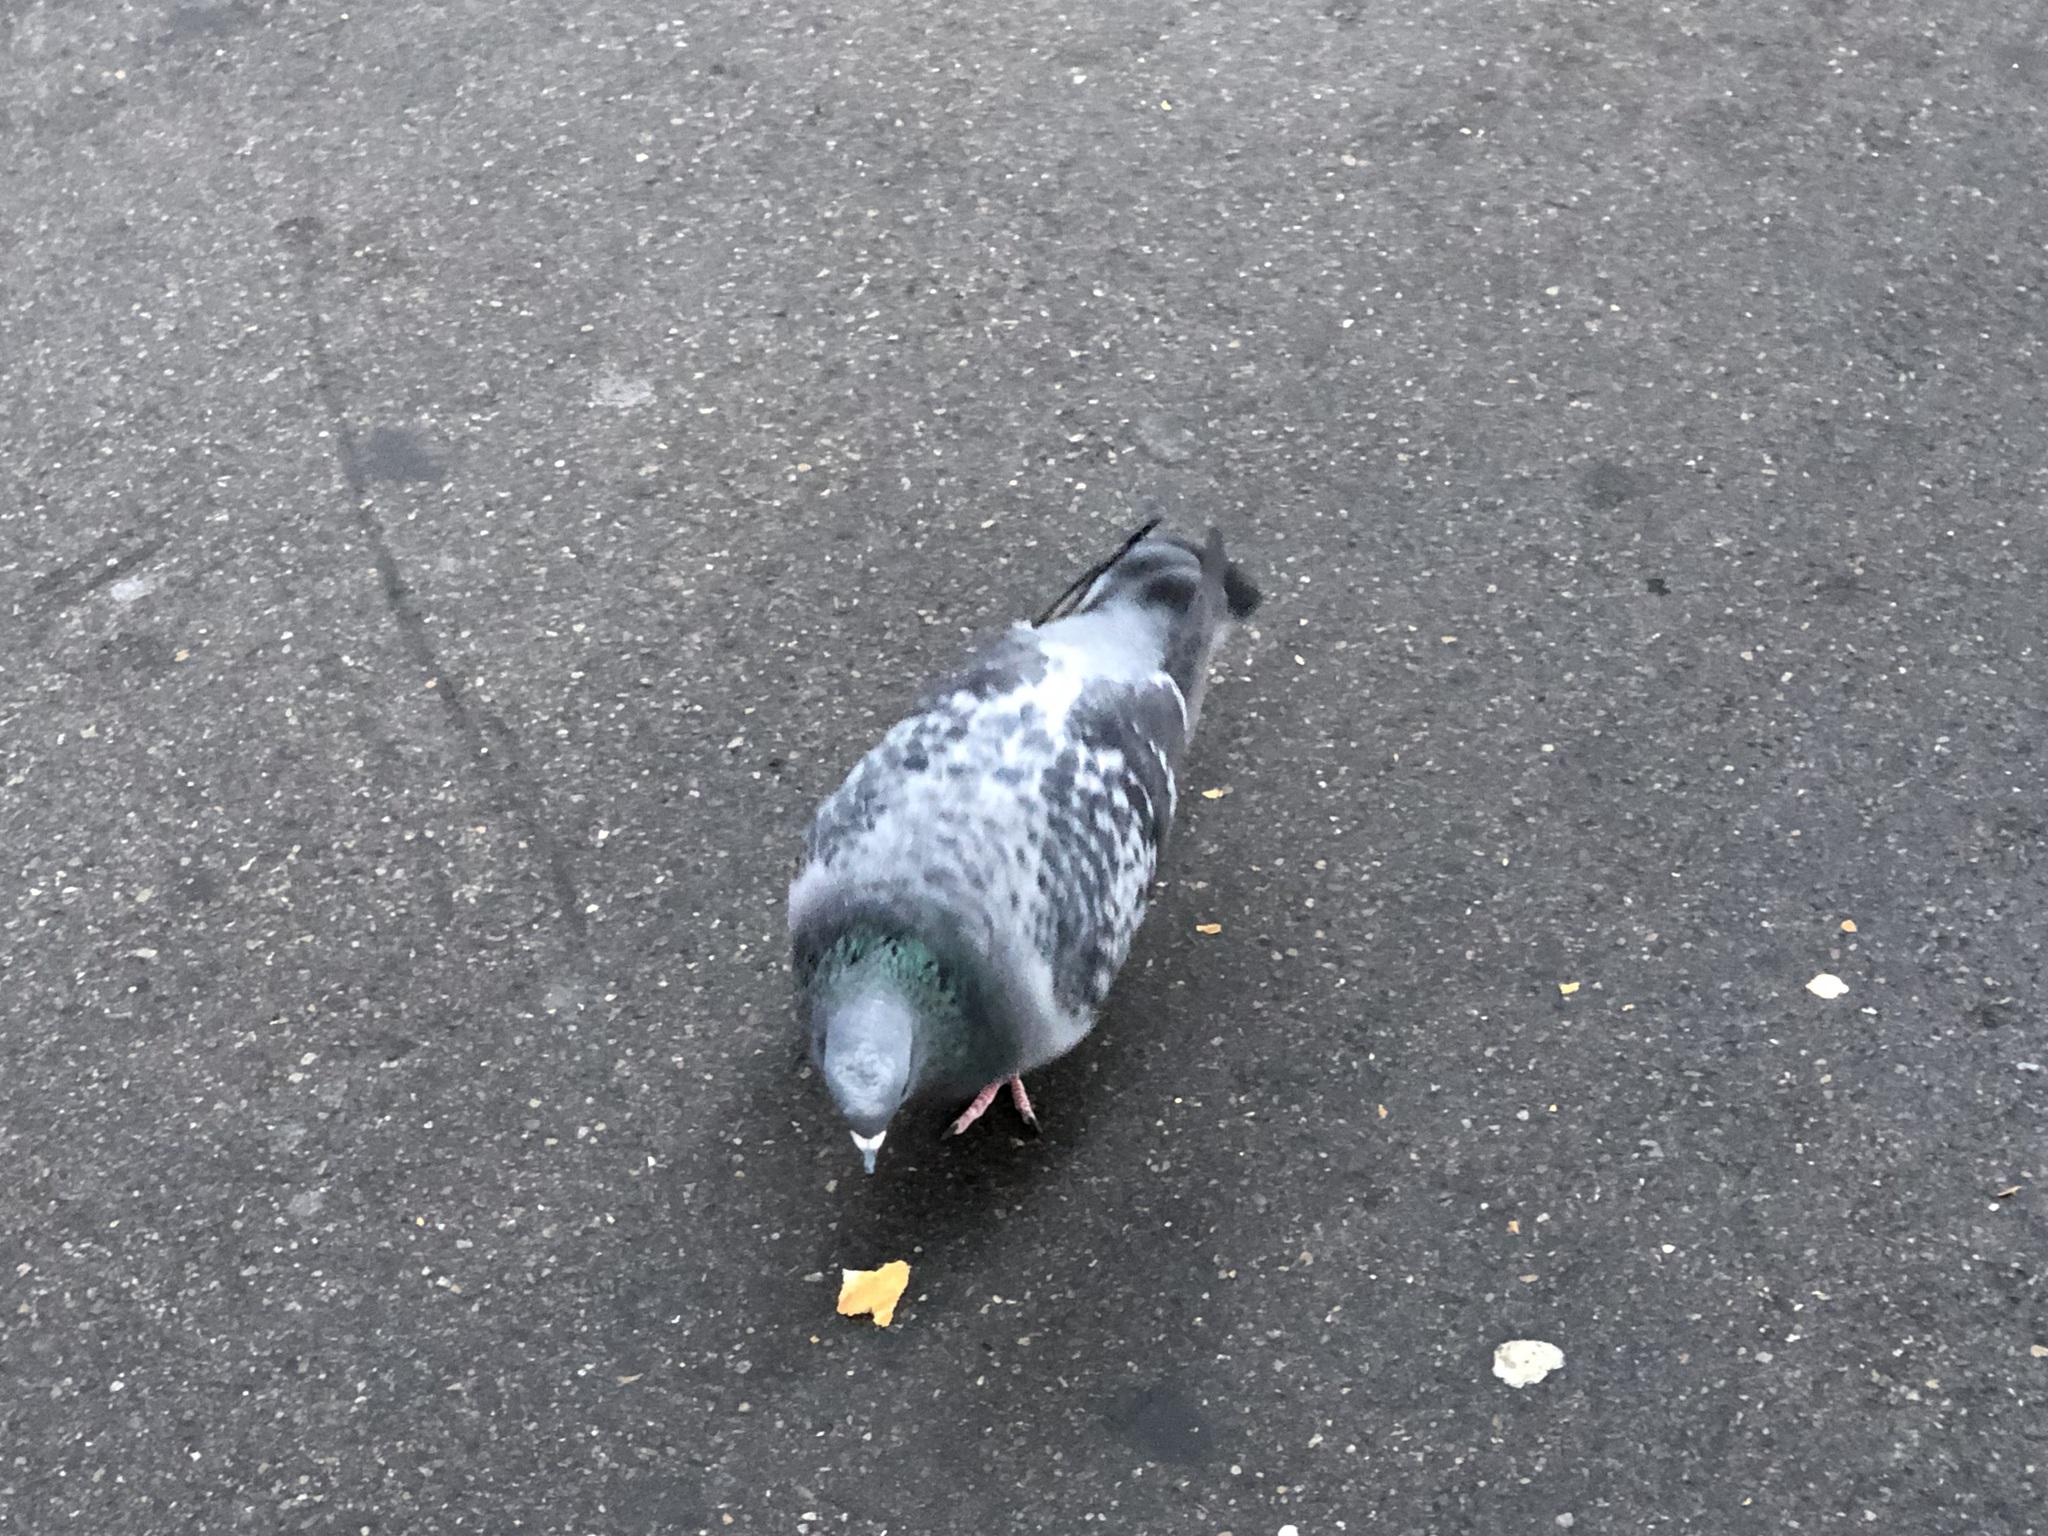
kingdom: Animalia
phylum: Chordata
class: Aves
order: Columbiformes
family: Columbidae
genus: Columba
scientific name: Columba livia
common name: Rock pigeon
